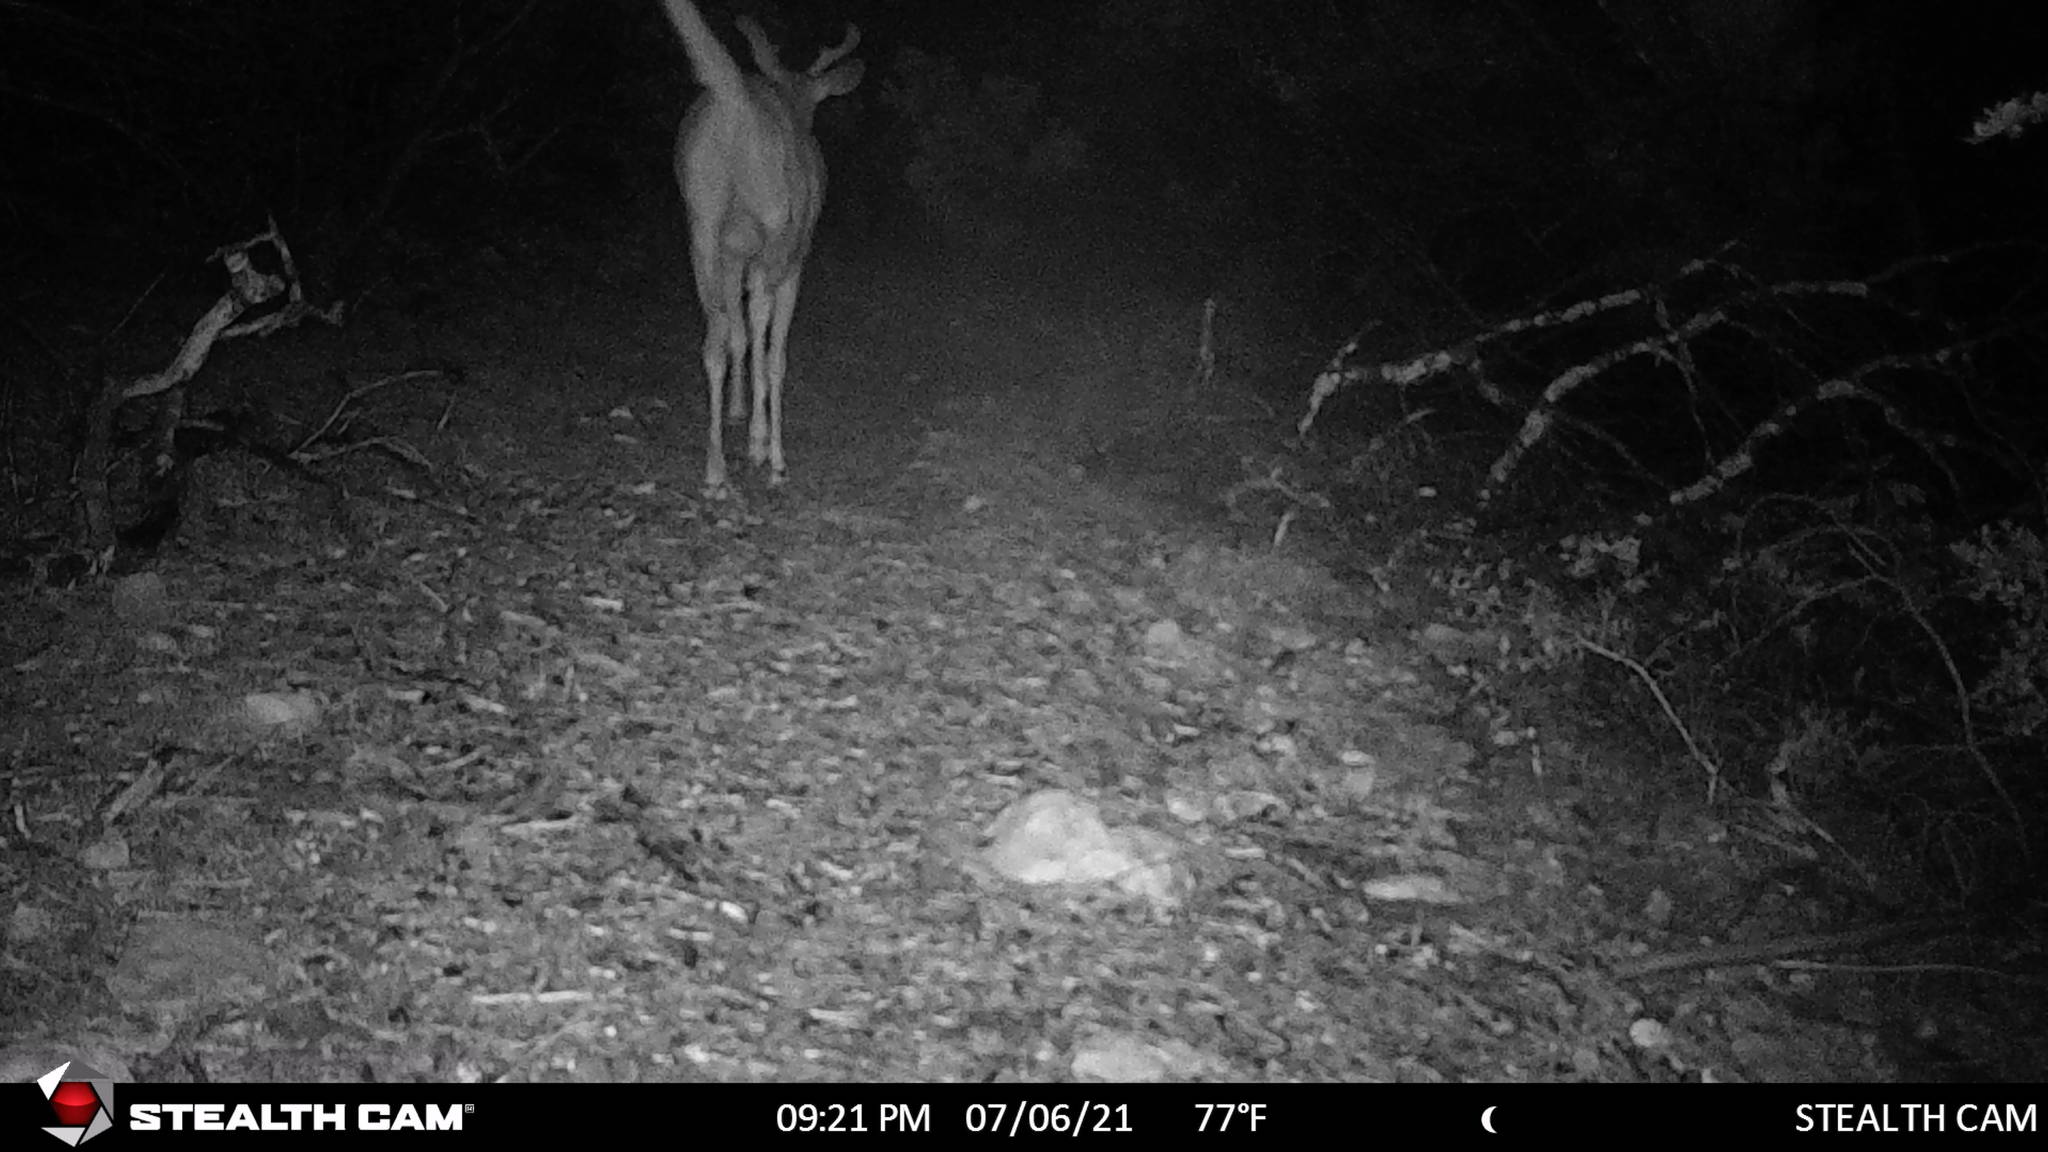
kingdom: Animalia
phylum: Chordata
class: Mammalia
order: Artiodactyla
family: Cervidae
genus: Odocoileus
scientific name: Odocoileus virginianus
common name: White-tailed deer
